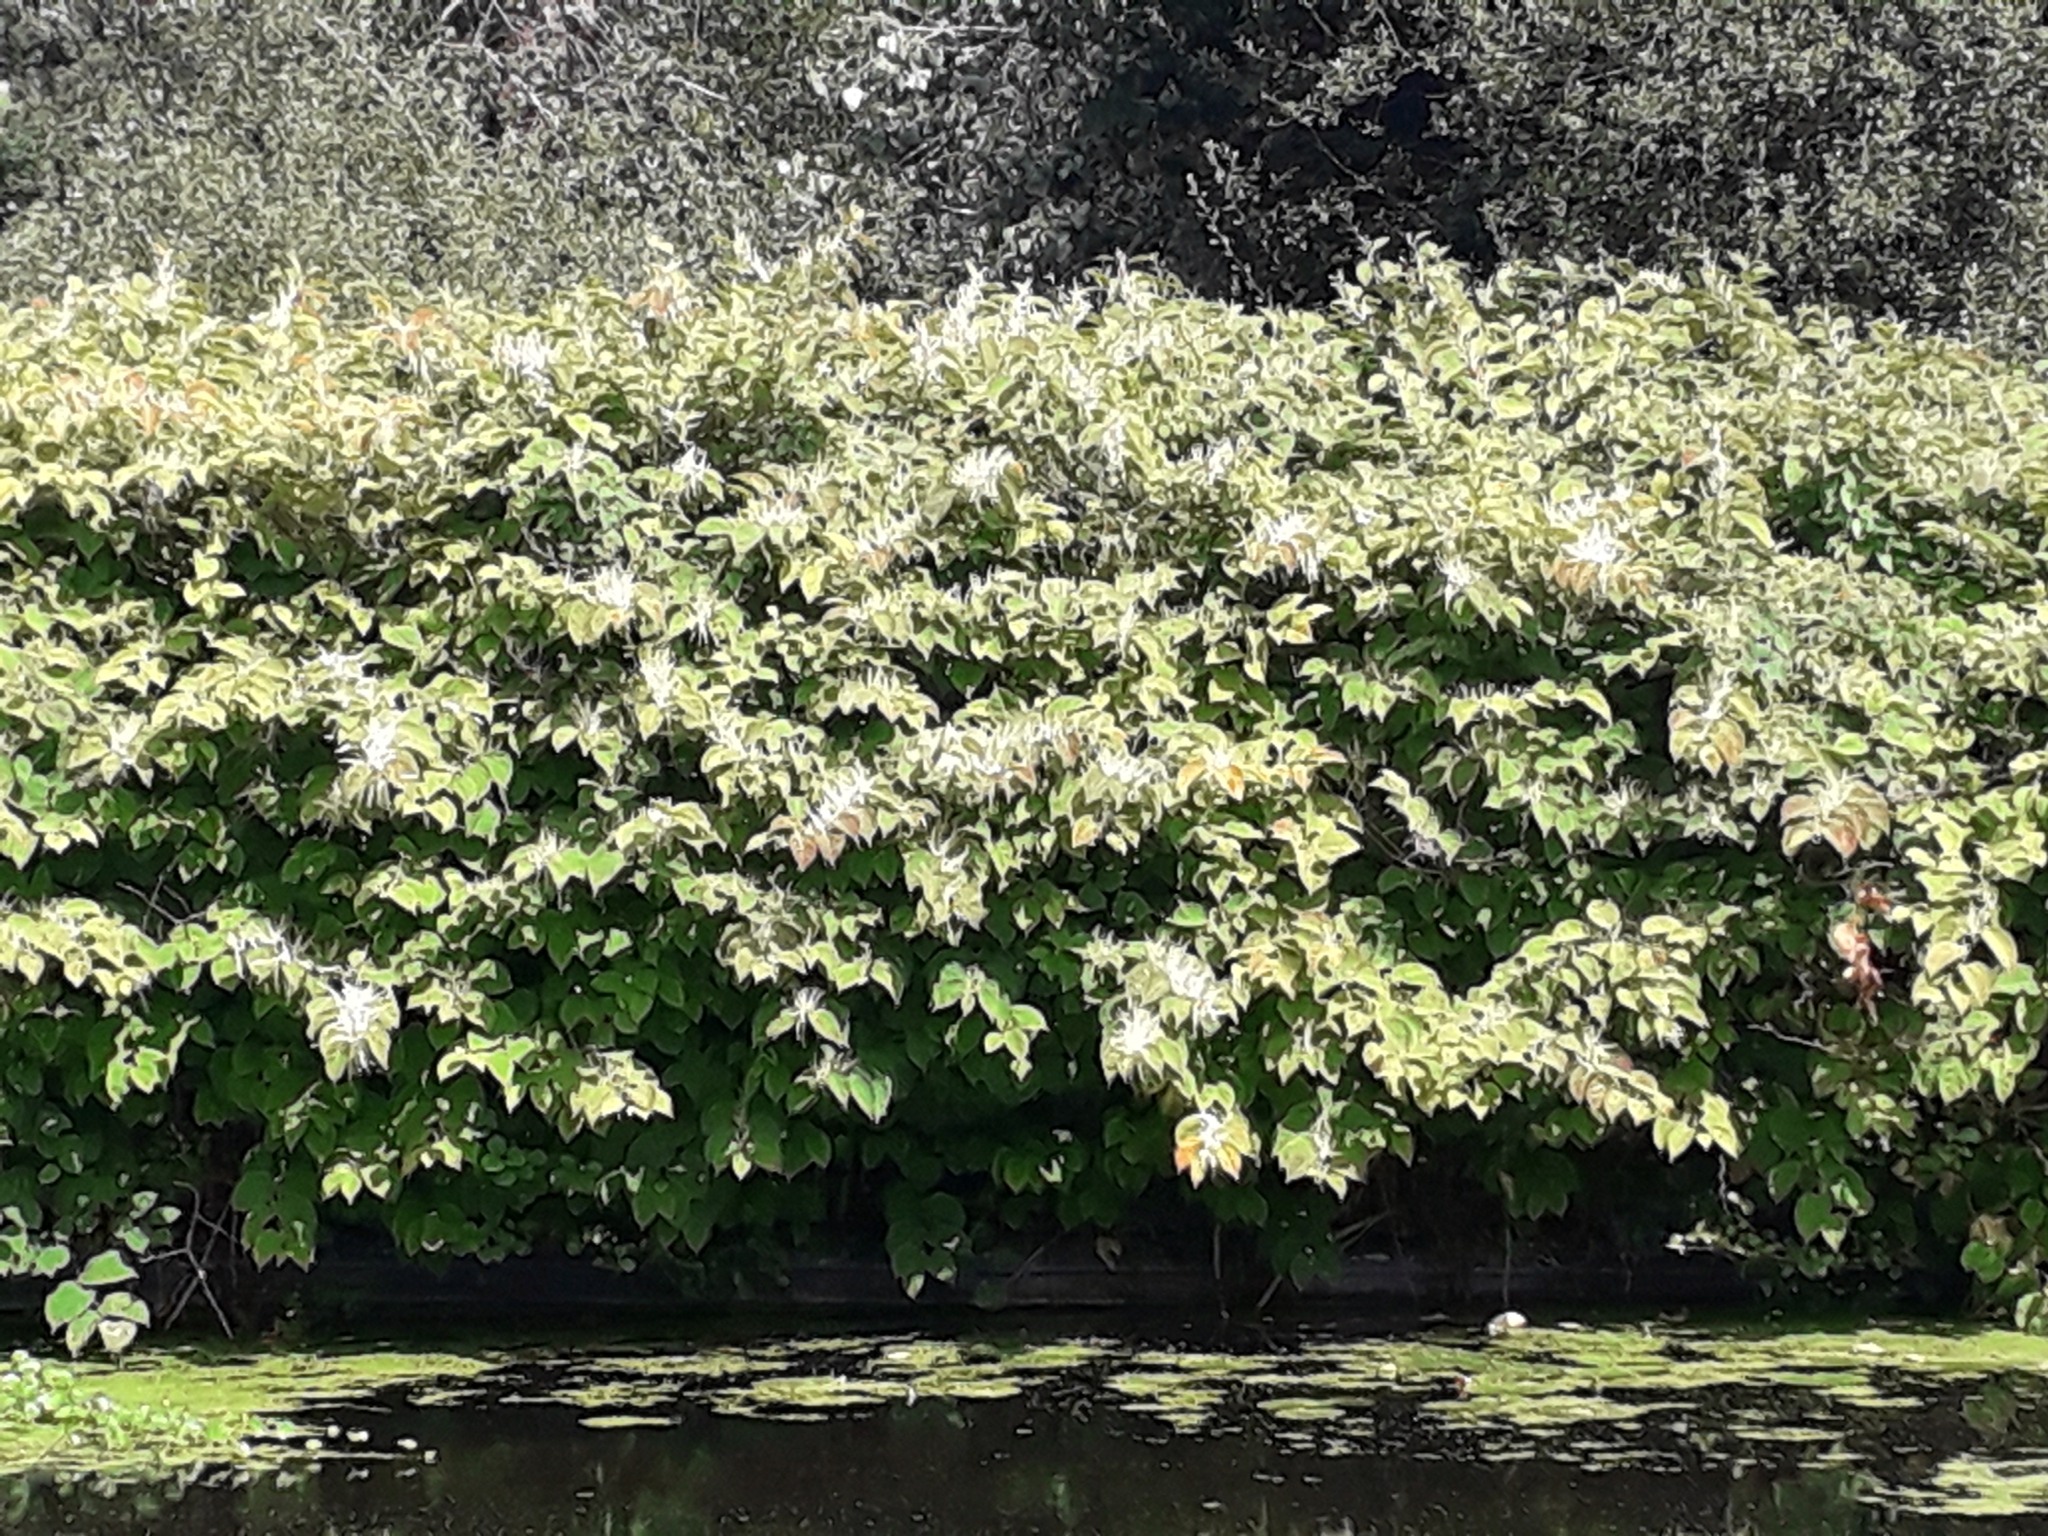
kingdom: Plantae
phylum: Tracheophyta
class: Magnoliopsida
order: Caryophyllales
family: Polygonaceae
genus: Reynoutria
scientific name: Reynoutria japonica
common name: Japanese knotweed
